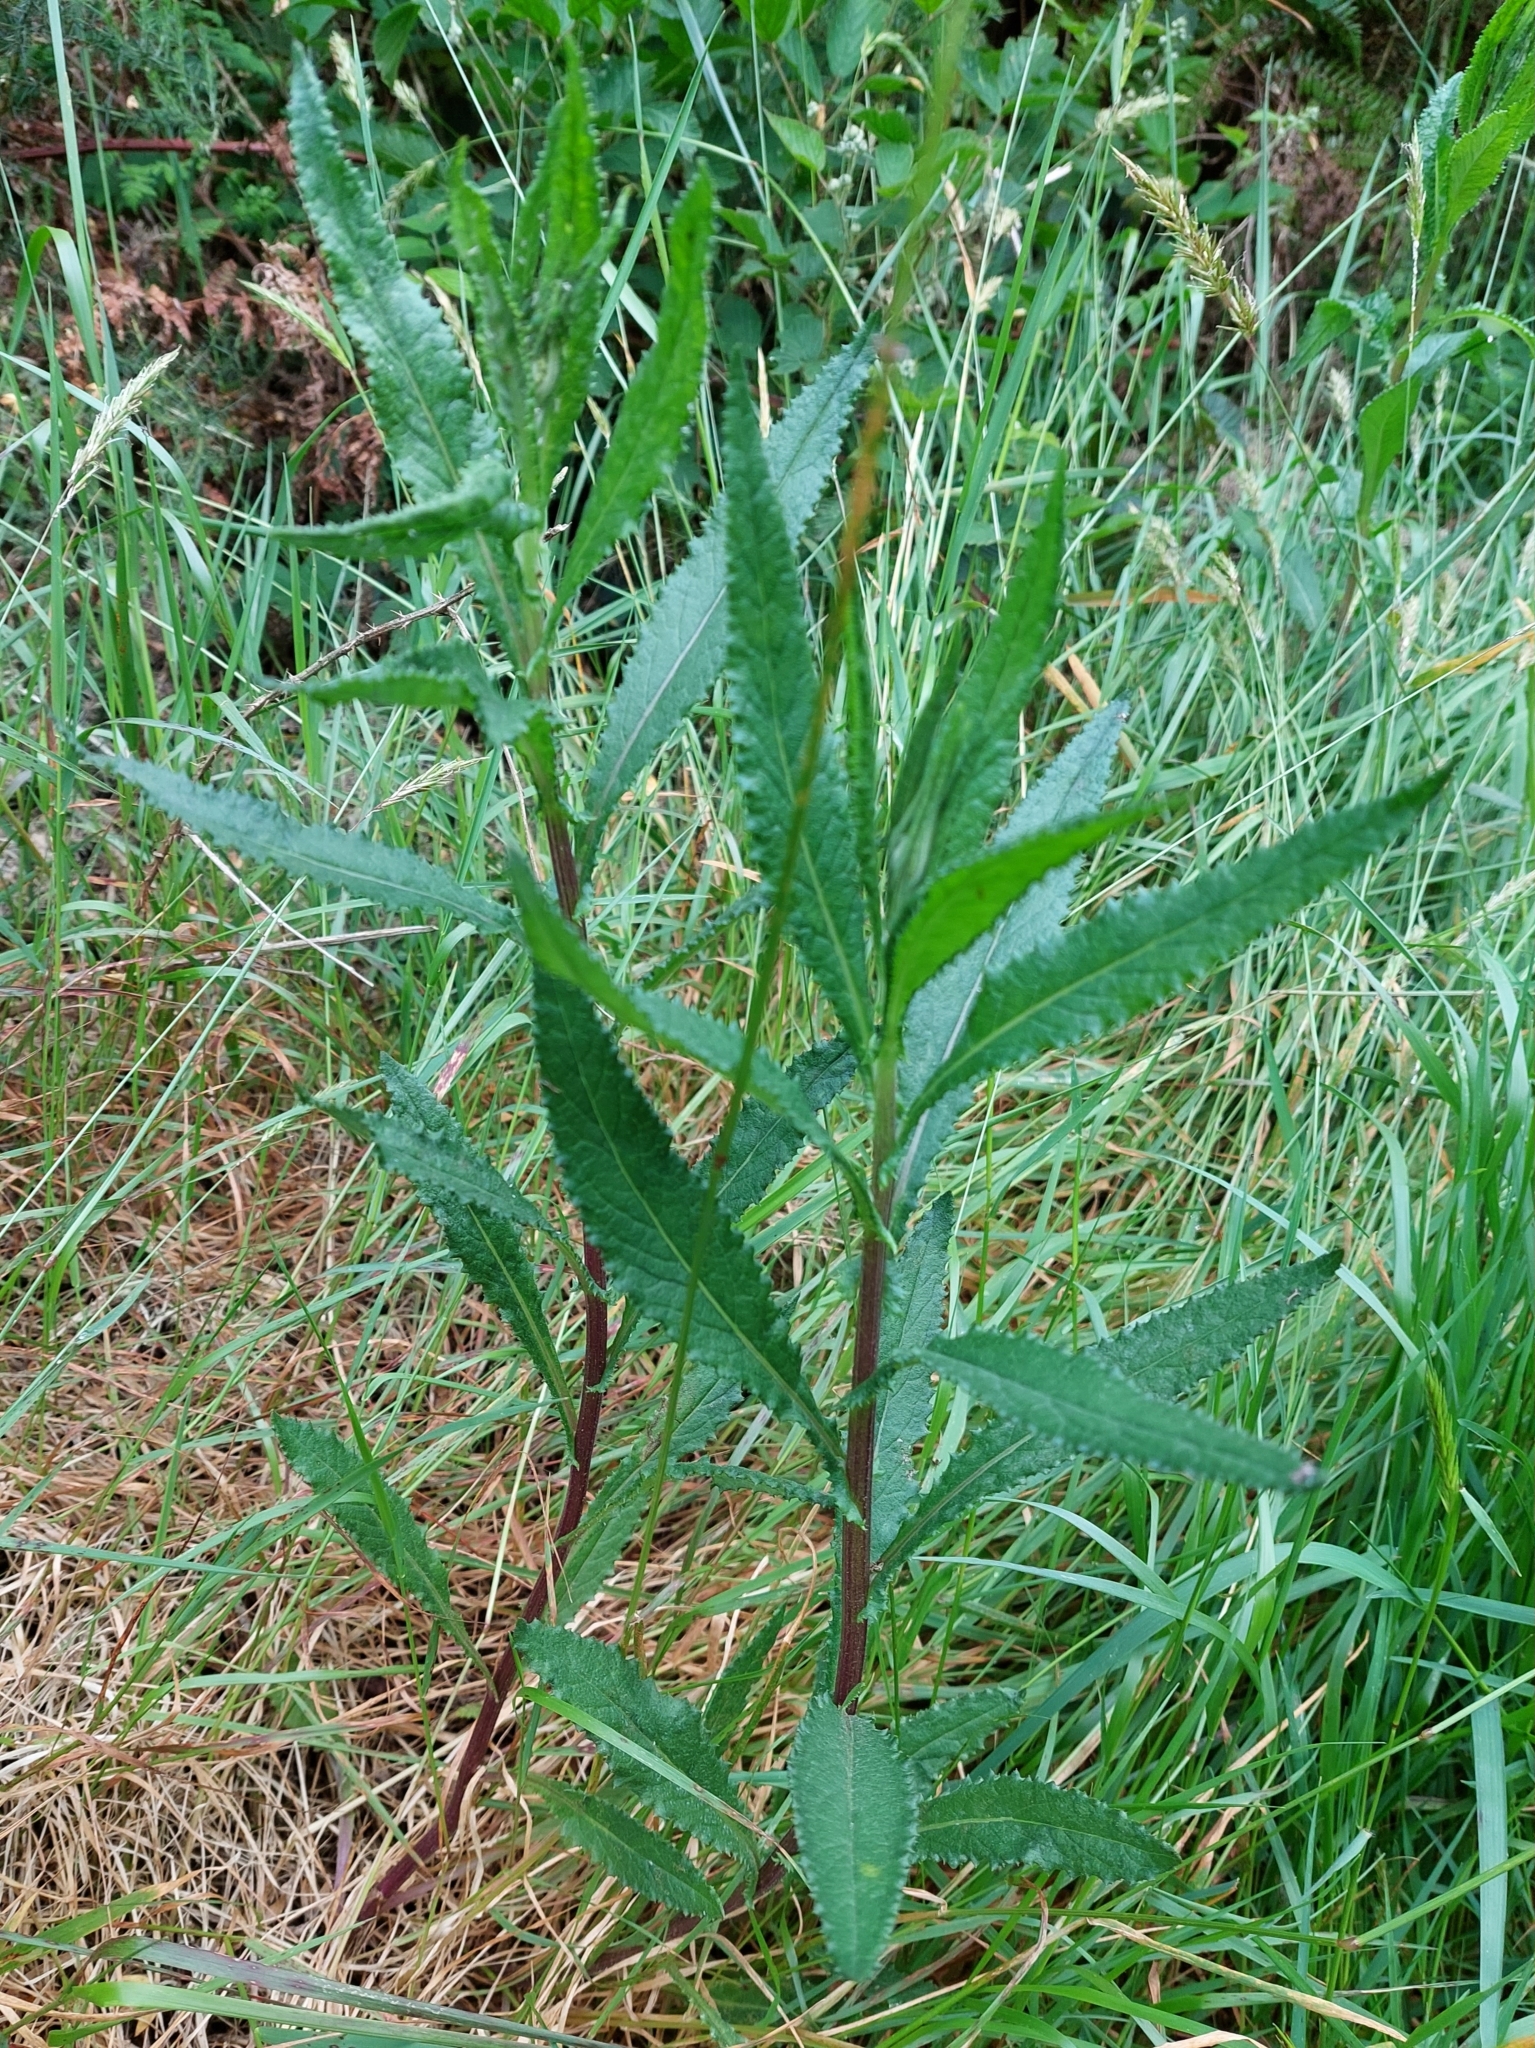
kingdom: Plantae
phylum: Tracheophyta
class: Magnoliopsida
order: Asterales
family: Asteraceae
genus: Senecio
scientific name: Senecio minimus
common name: Toothed fireweed
